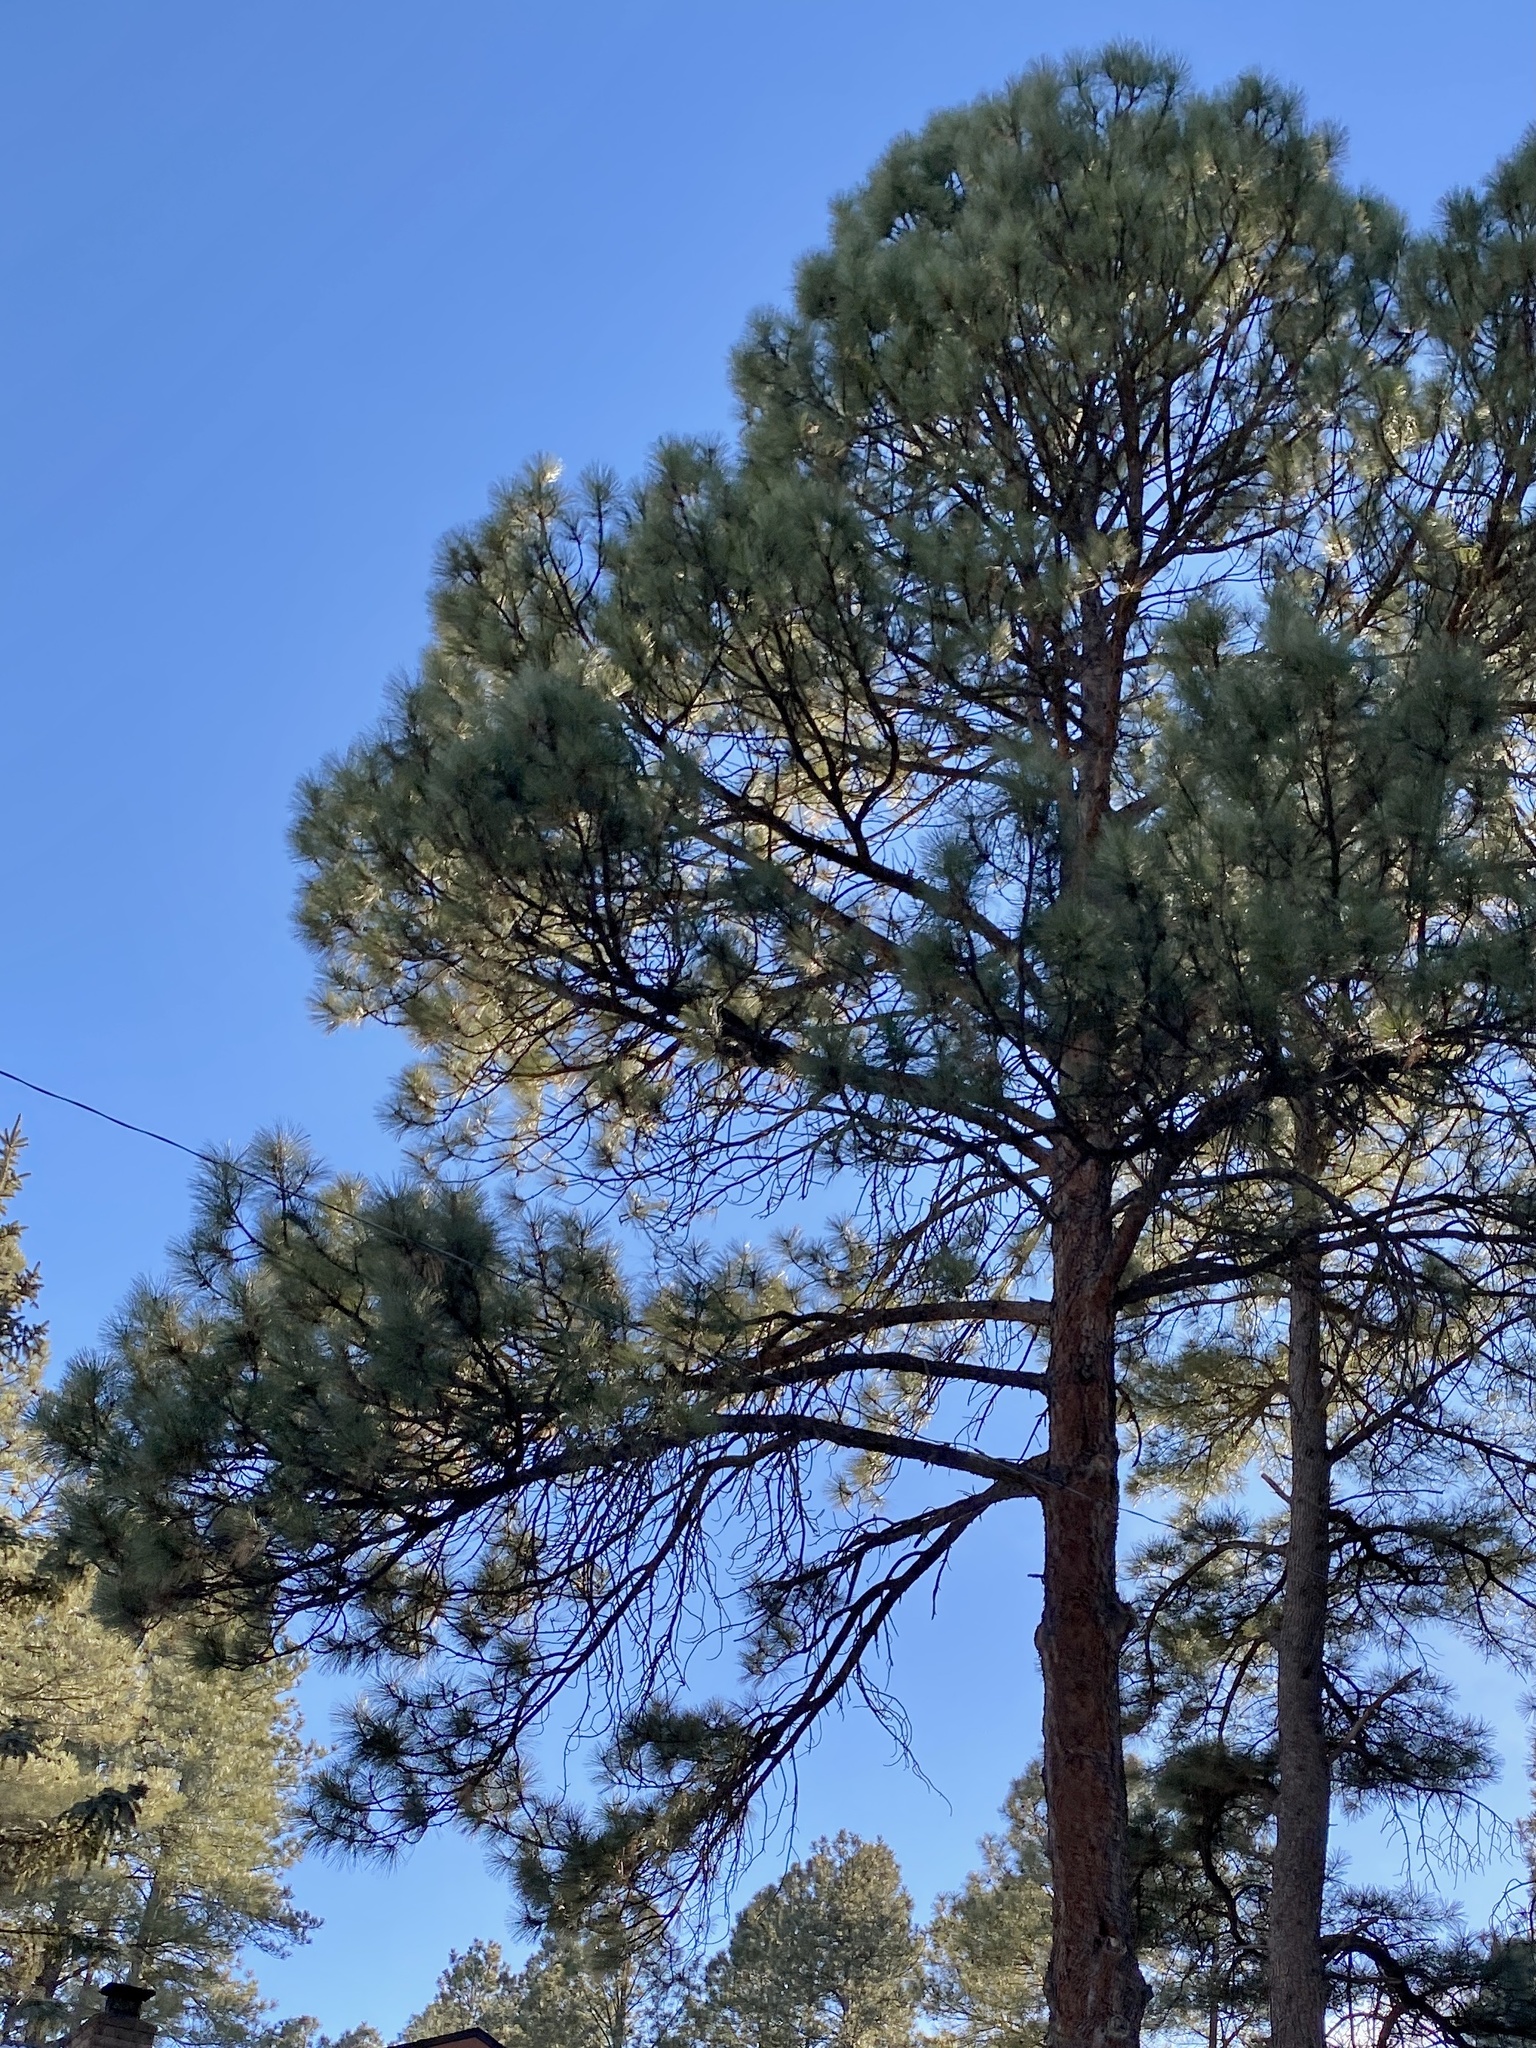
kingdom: Plantae
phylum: Tracheophyta
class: Pinopsida
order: Pinales
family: Pinaceae
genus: Pinus
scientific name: Pinus ponderosa
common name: Western yellow-pine
